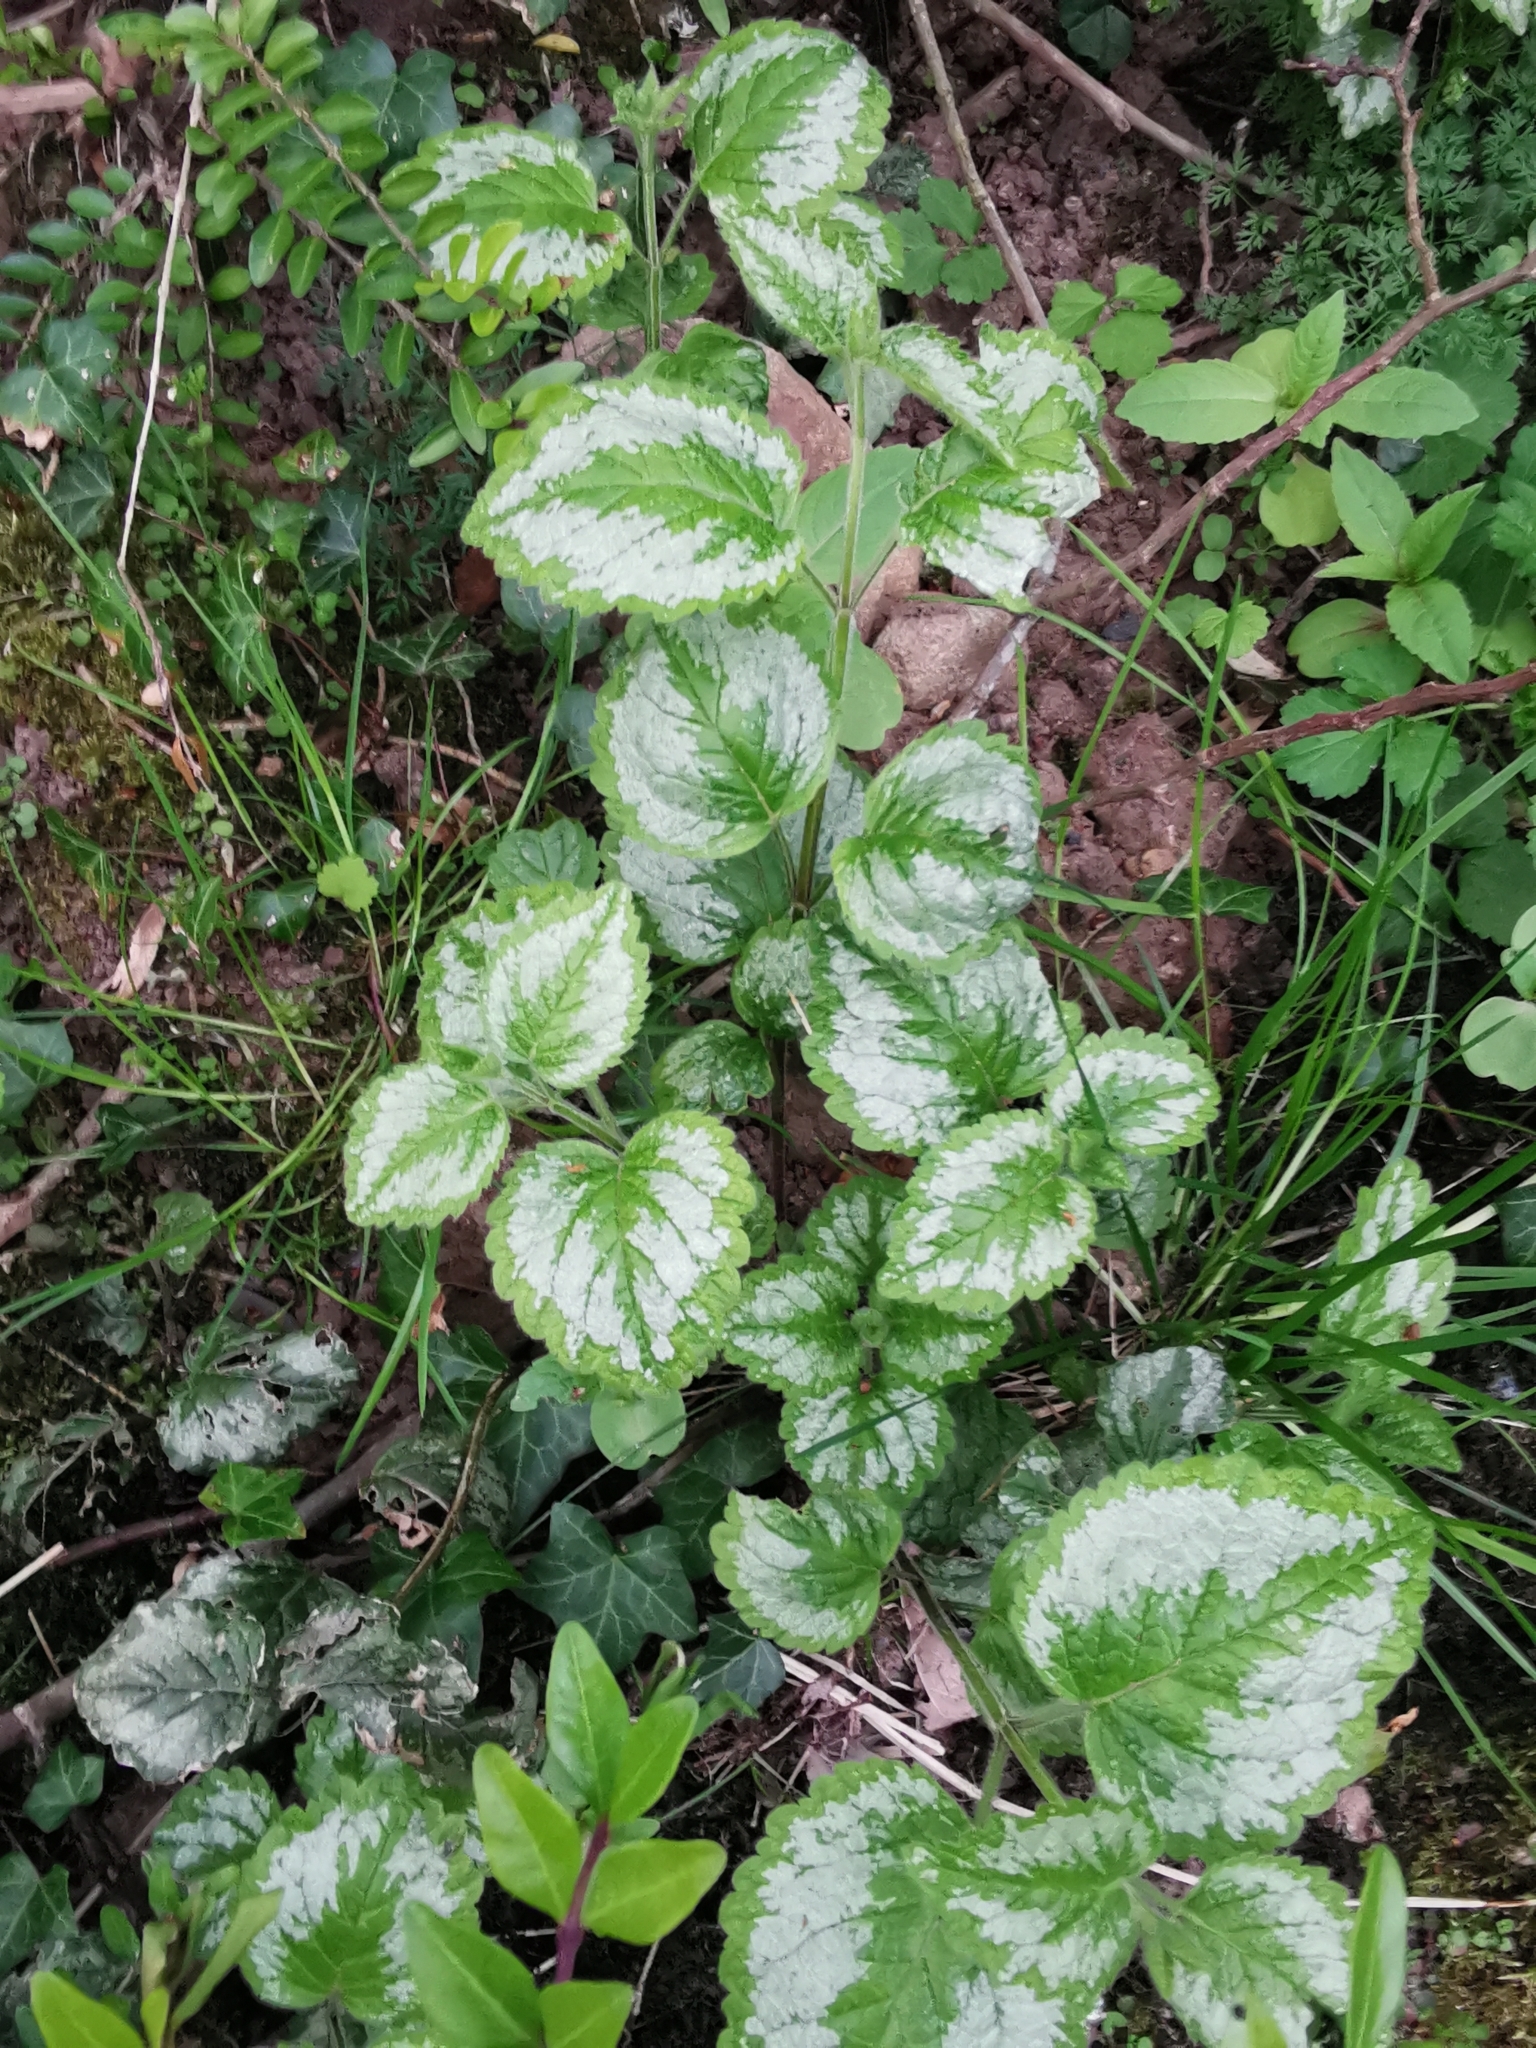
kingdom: Plantae
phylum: Tracheophyta
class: Magnoliopsida
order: Lamiales
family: Lamiaceae
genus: Lamium
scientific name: Lamium galeobdolon
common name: Yellow archangel
